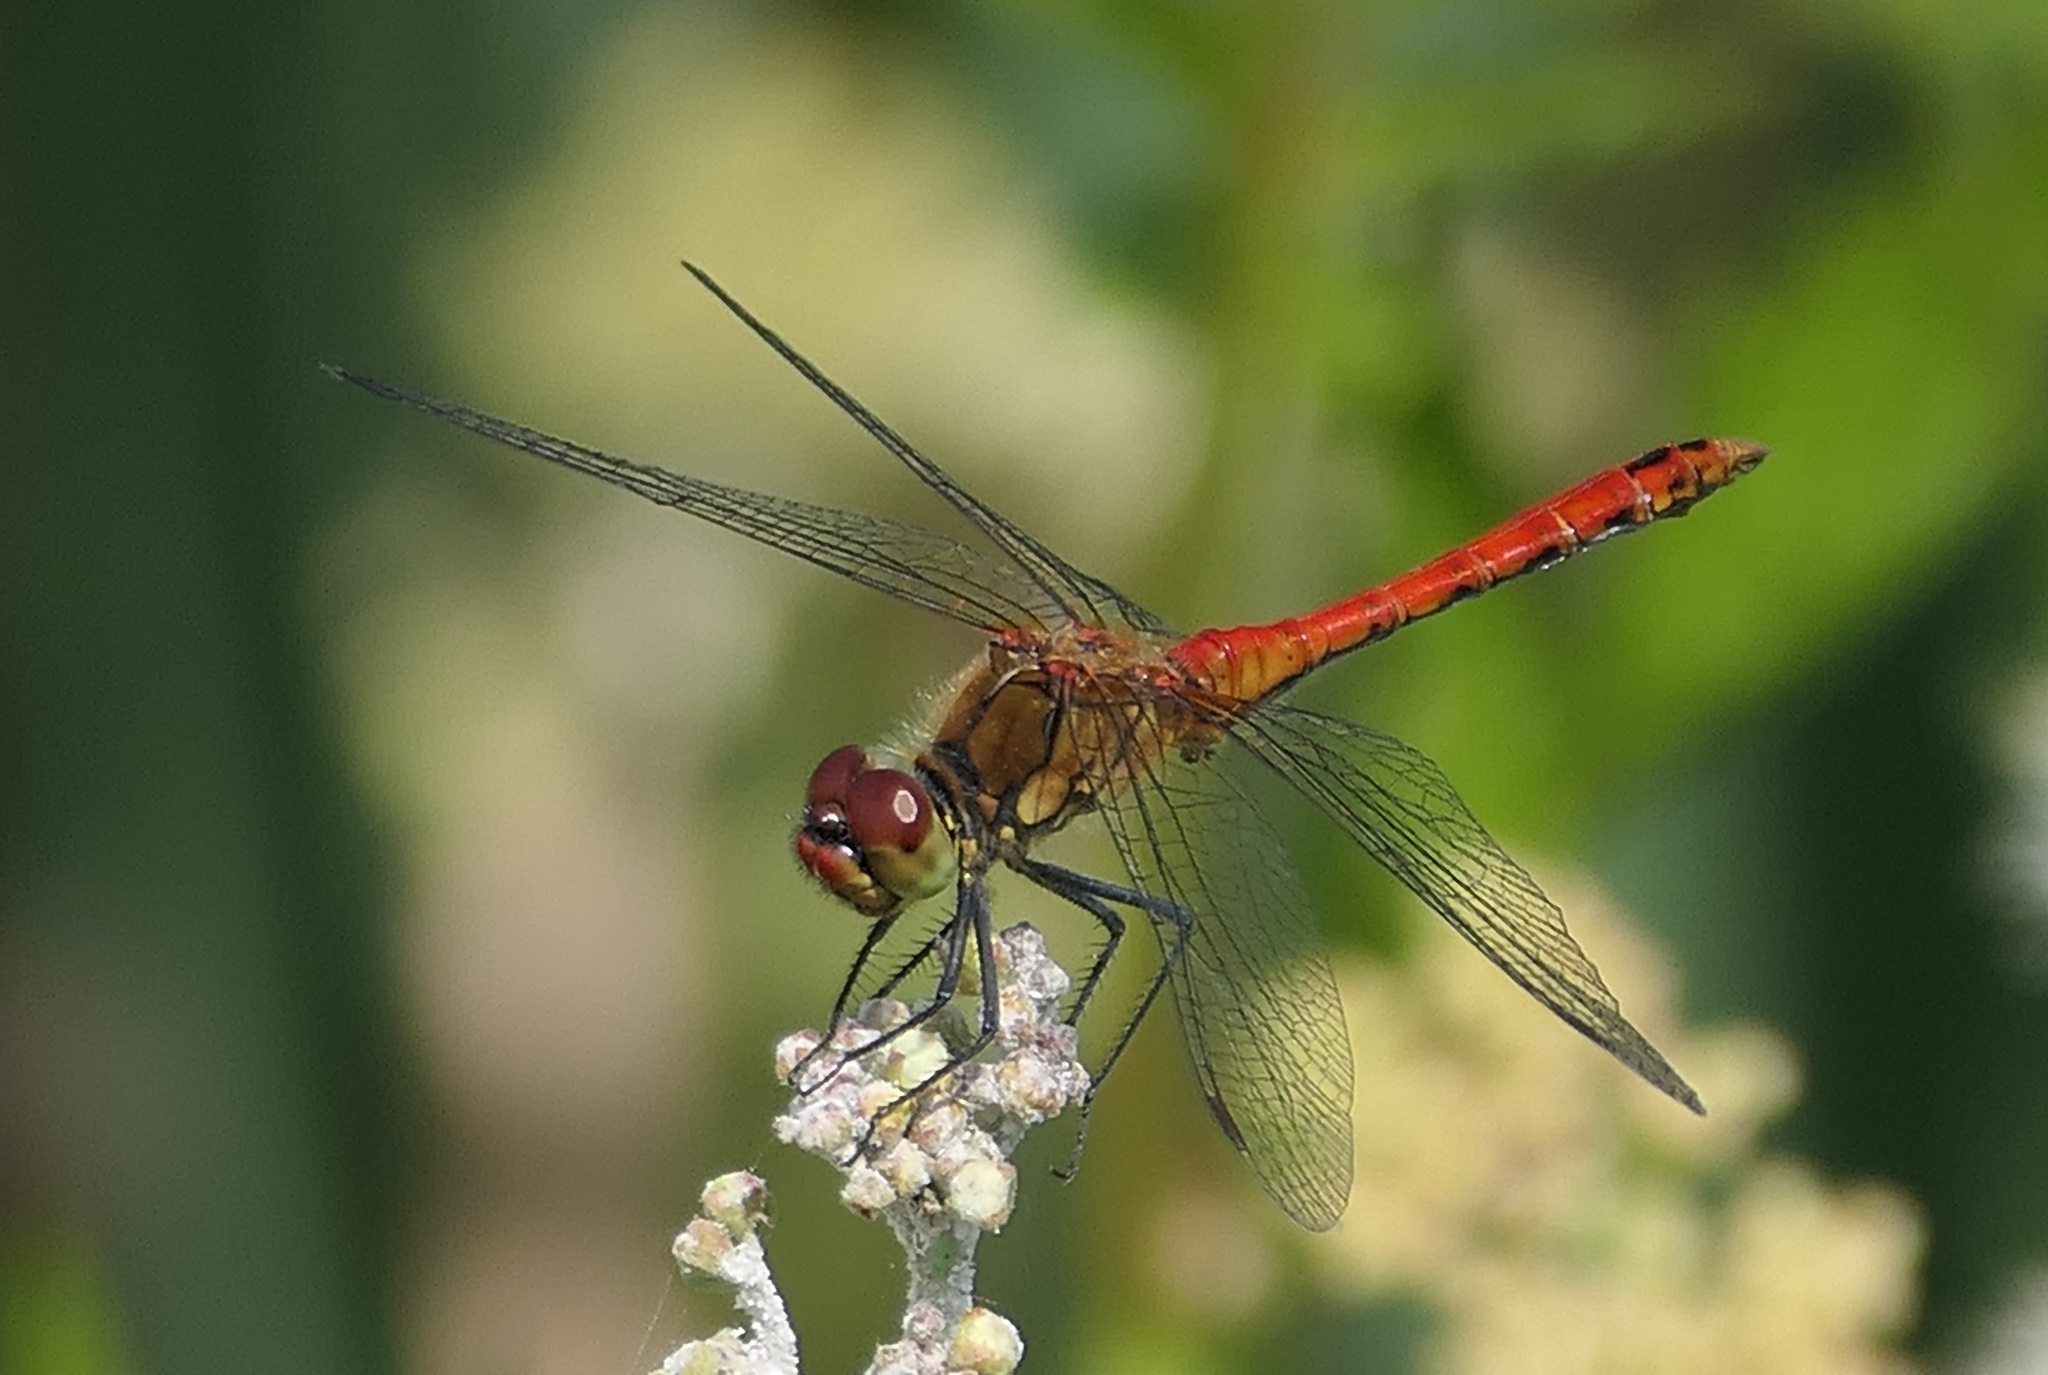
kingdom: Animalia
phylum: Arthropoda
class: Insecta
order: Odonata
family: Libellulidae
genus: Sympetrum
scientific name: Sympetrum sanguineum
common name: Ruddy darter
